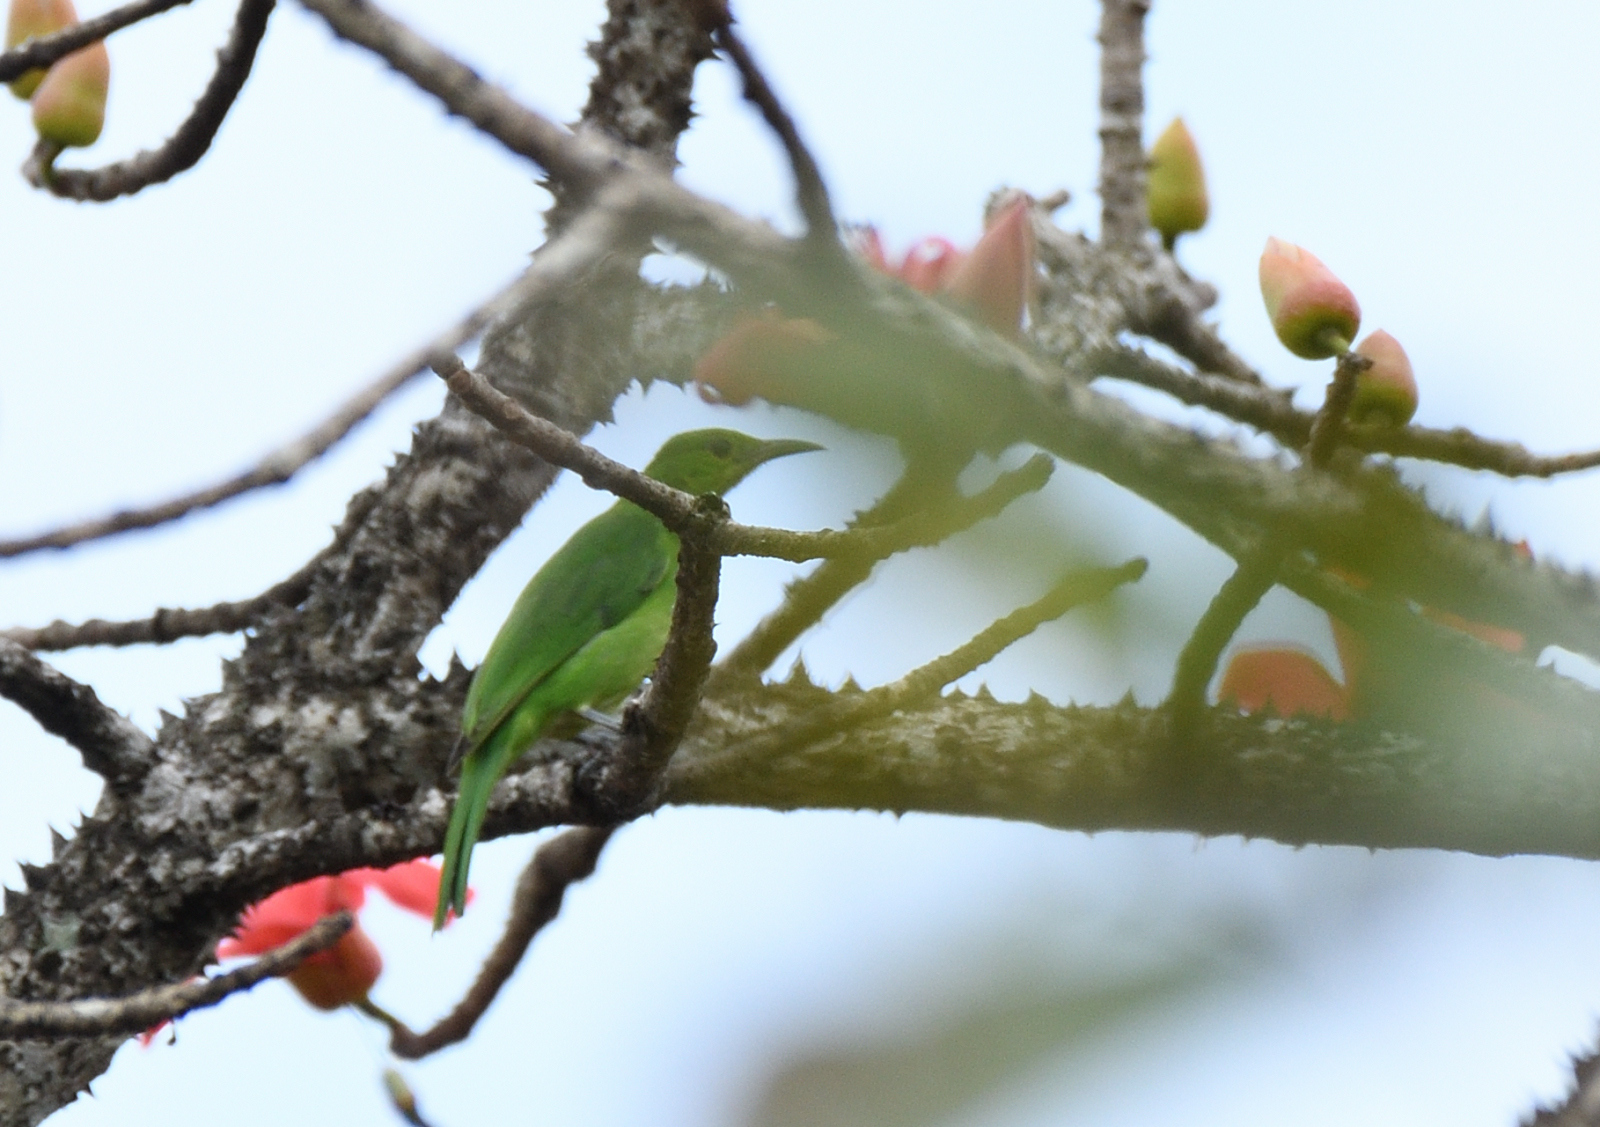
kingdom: Animalia
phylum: Chordata
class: Aves
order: Passeriformes
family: Chloropseidae
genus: Chloropsis
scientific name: Chloropsis jerdoni
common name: Jerdon's leafbird
